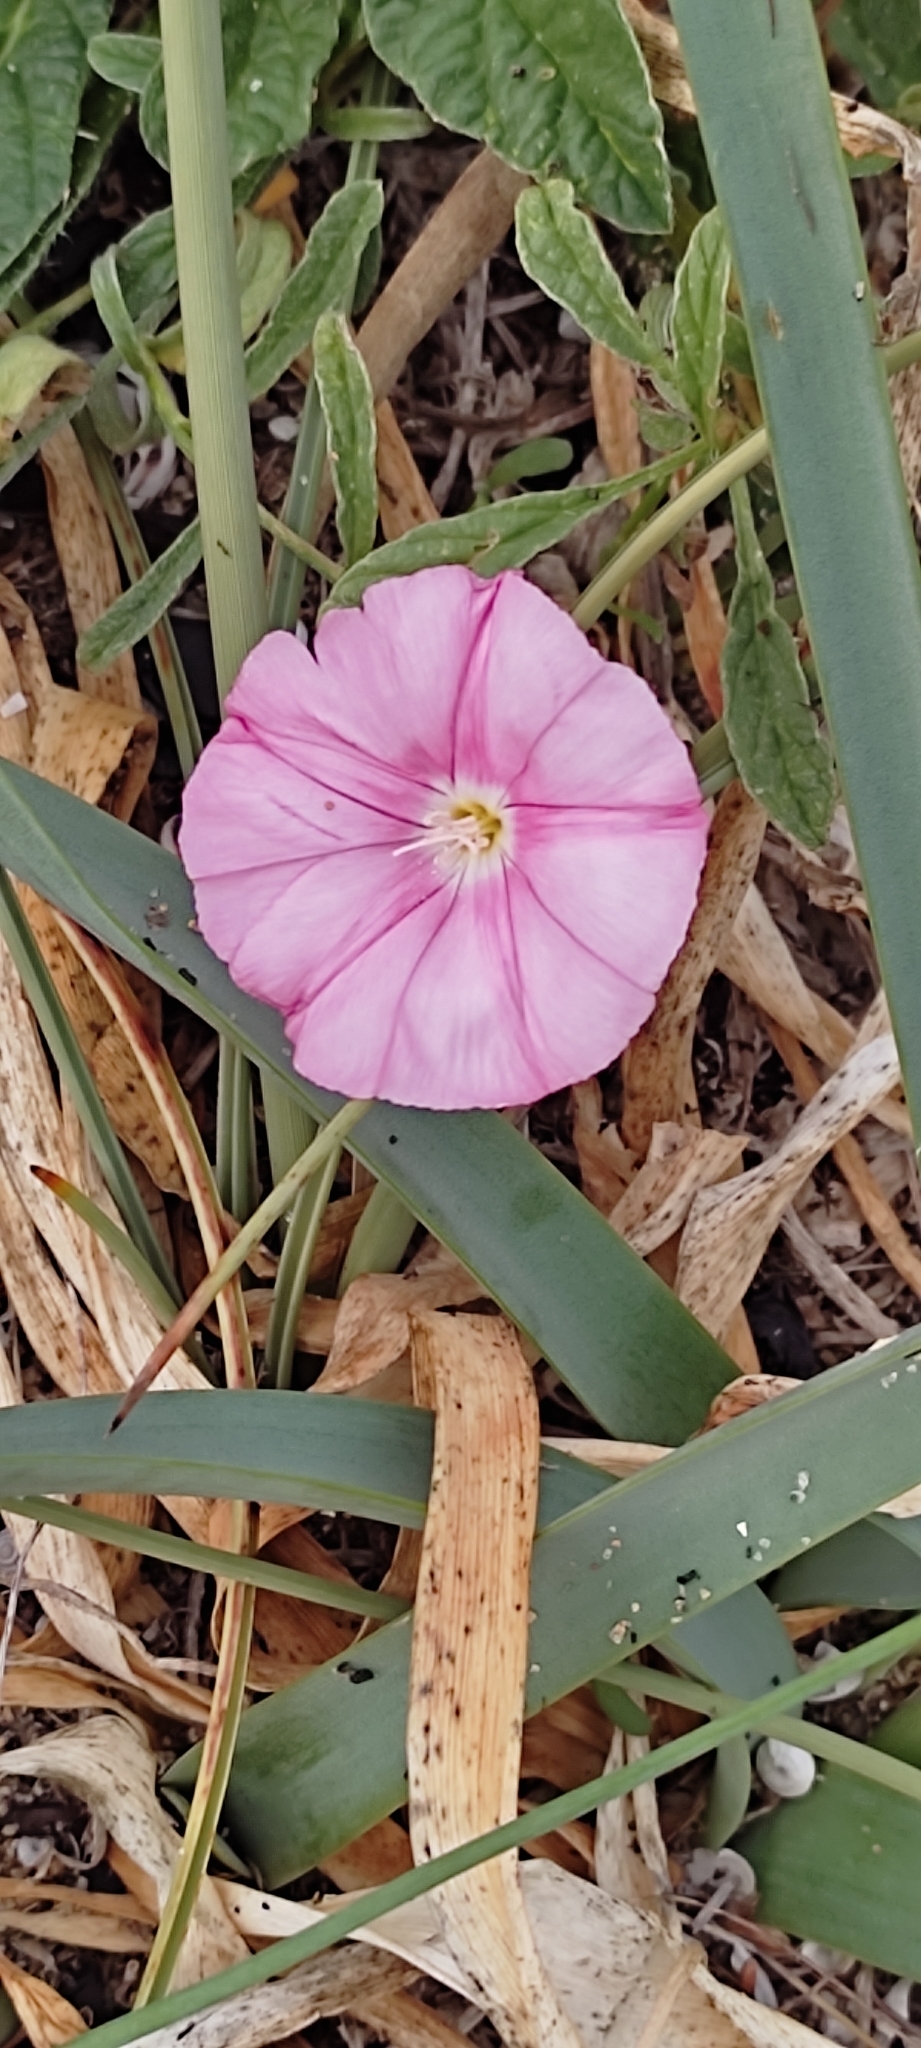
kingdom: Plantae
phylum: Tracheophyta
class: Magnoliopsida
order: Solanales
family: Convolvulaceae
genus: Convolvulus
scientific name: Convolvulus cantabrica
